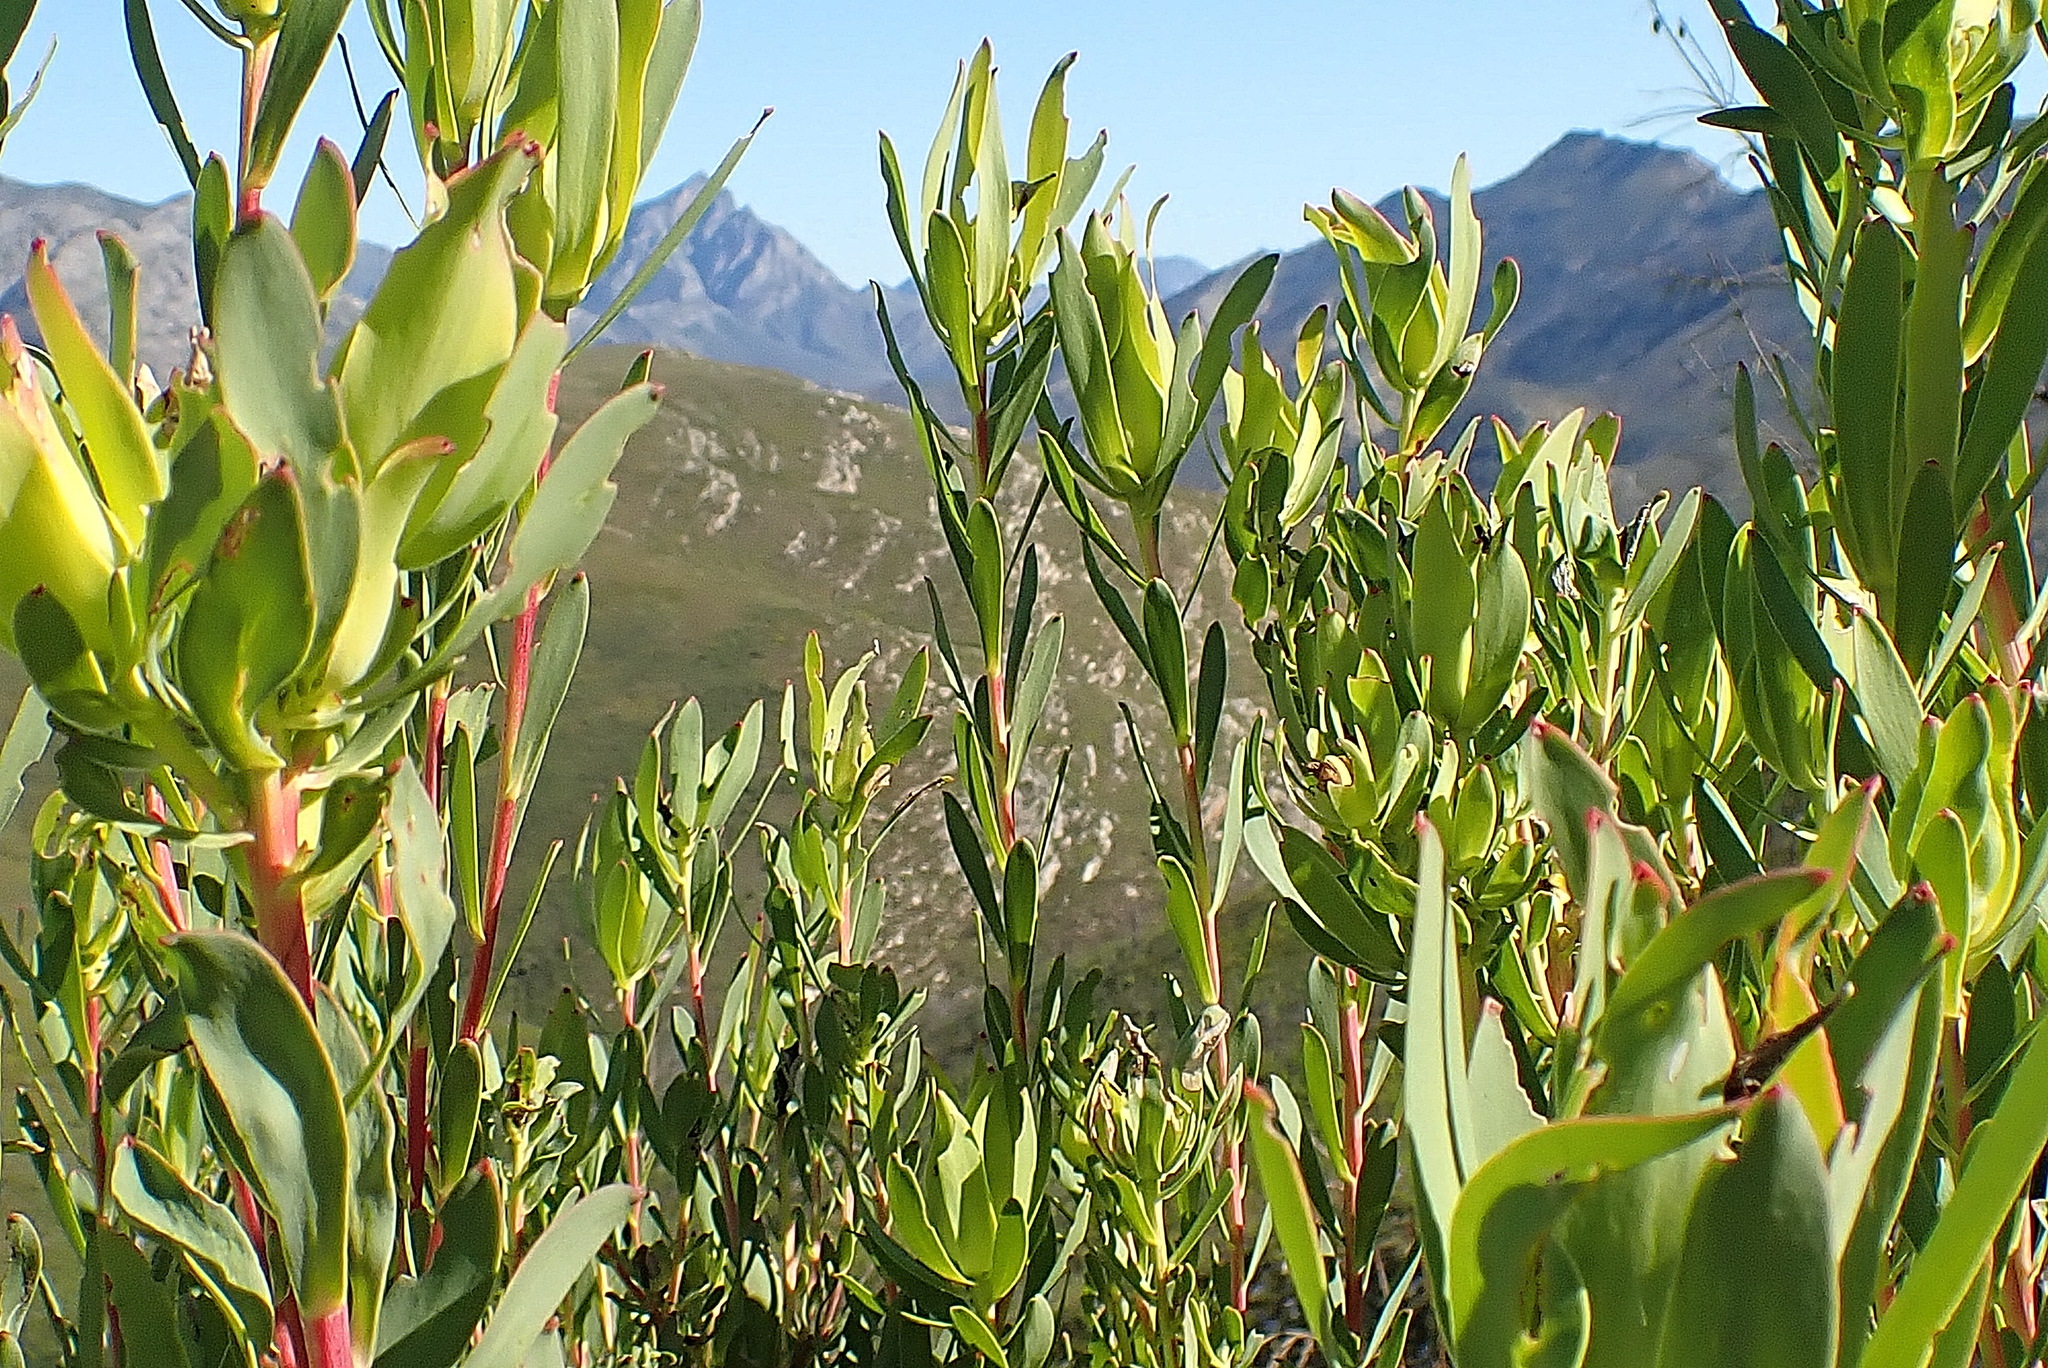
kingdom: Plantae
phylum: Tracheophyta
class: Magnoliopsida
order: Proteales
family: Proteaceae
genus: Leucadendron
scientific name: Leucadendron salignum
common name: Common sunshine conebush
